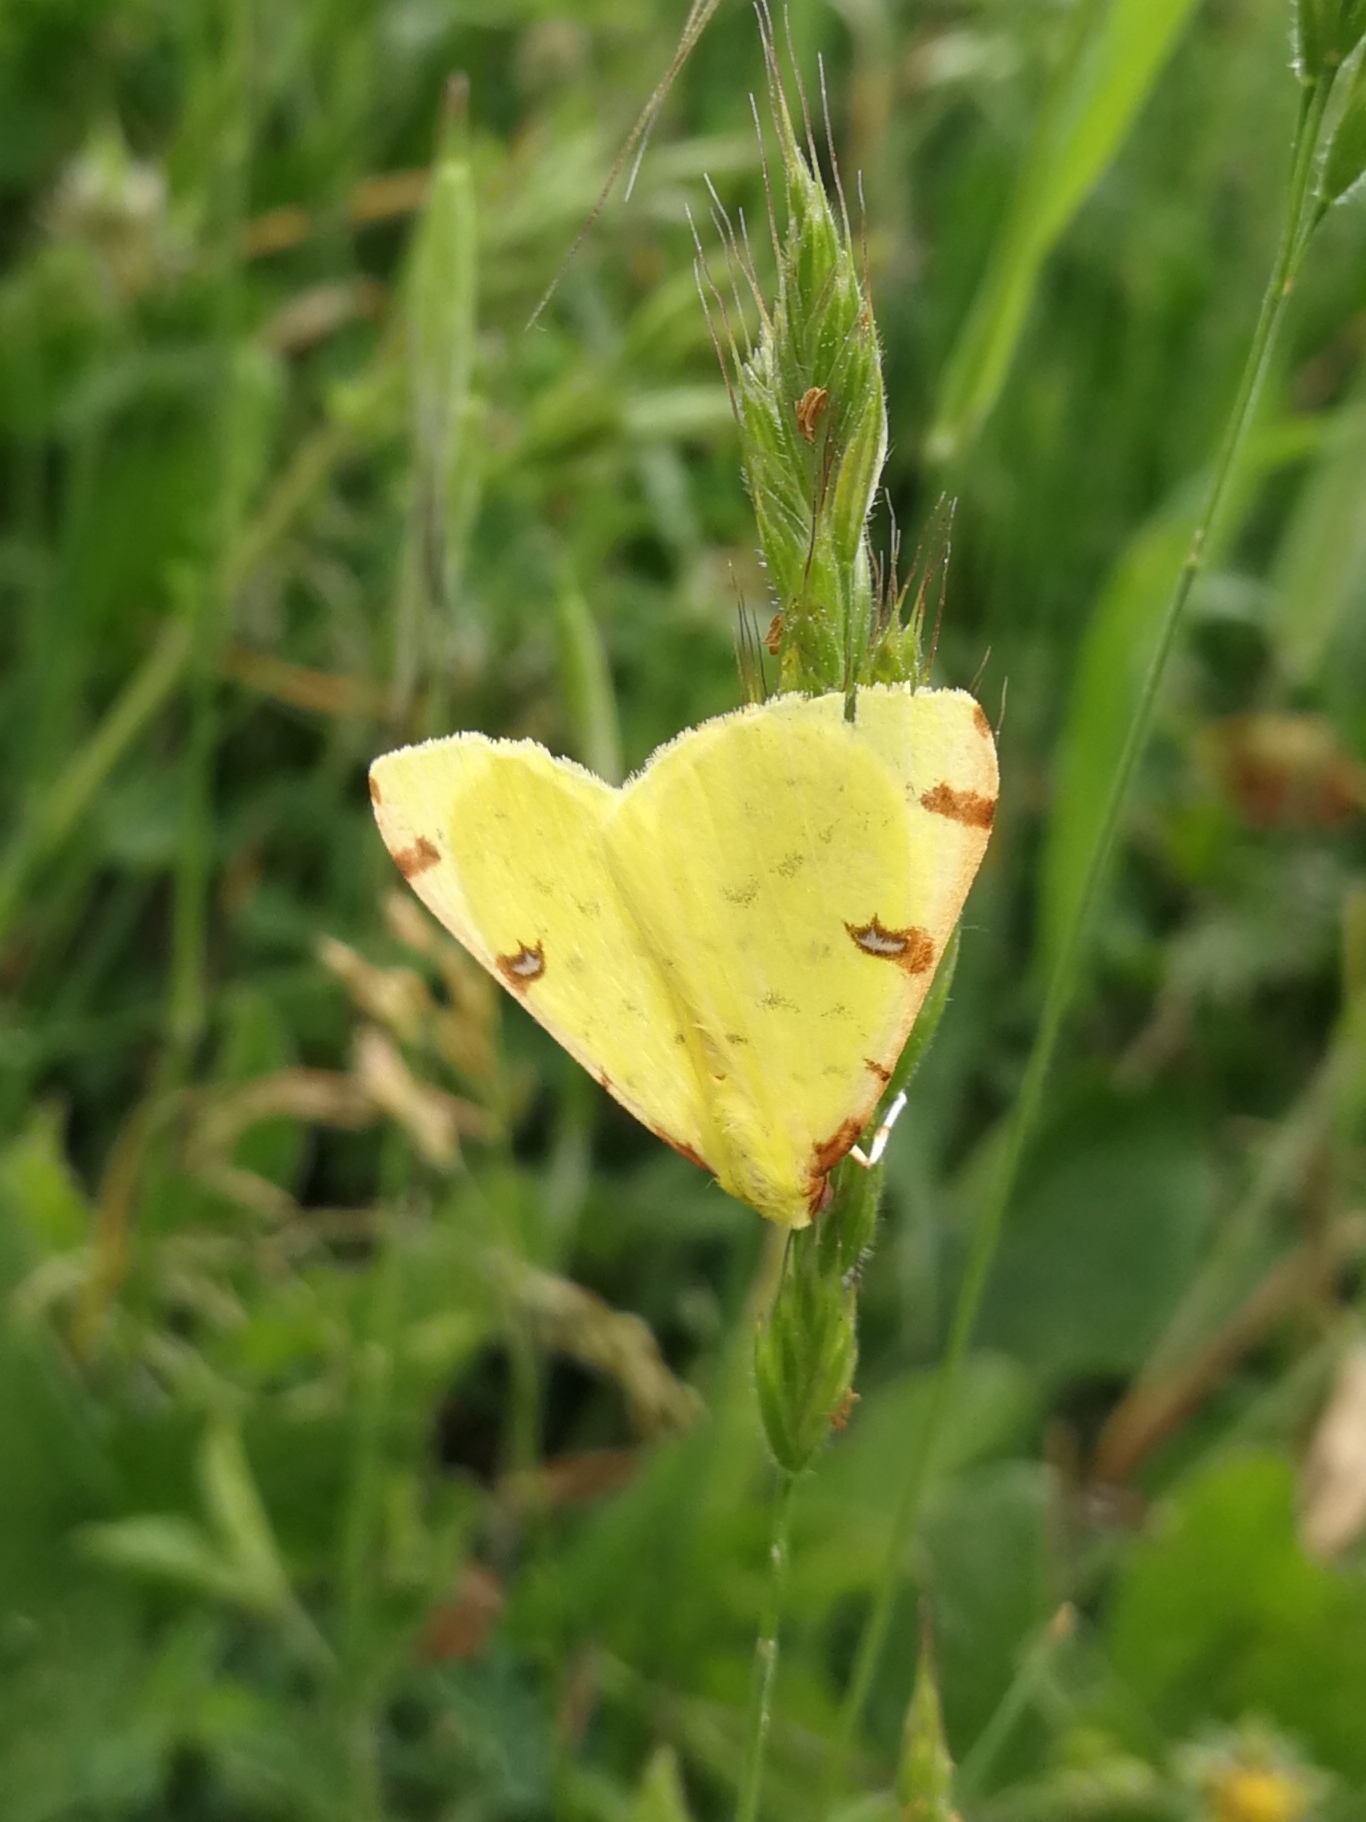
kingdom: Animalia
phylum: Arthropoda
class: Insecta
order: Lepidoptera
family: Geometridae
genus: Opisthograptis
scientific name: Opisthograptis luteolata
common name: Brimstone moth
